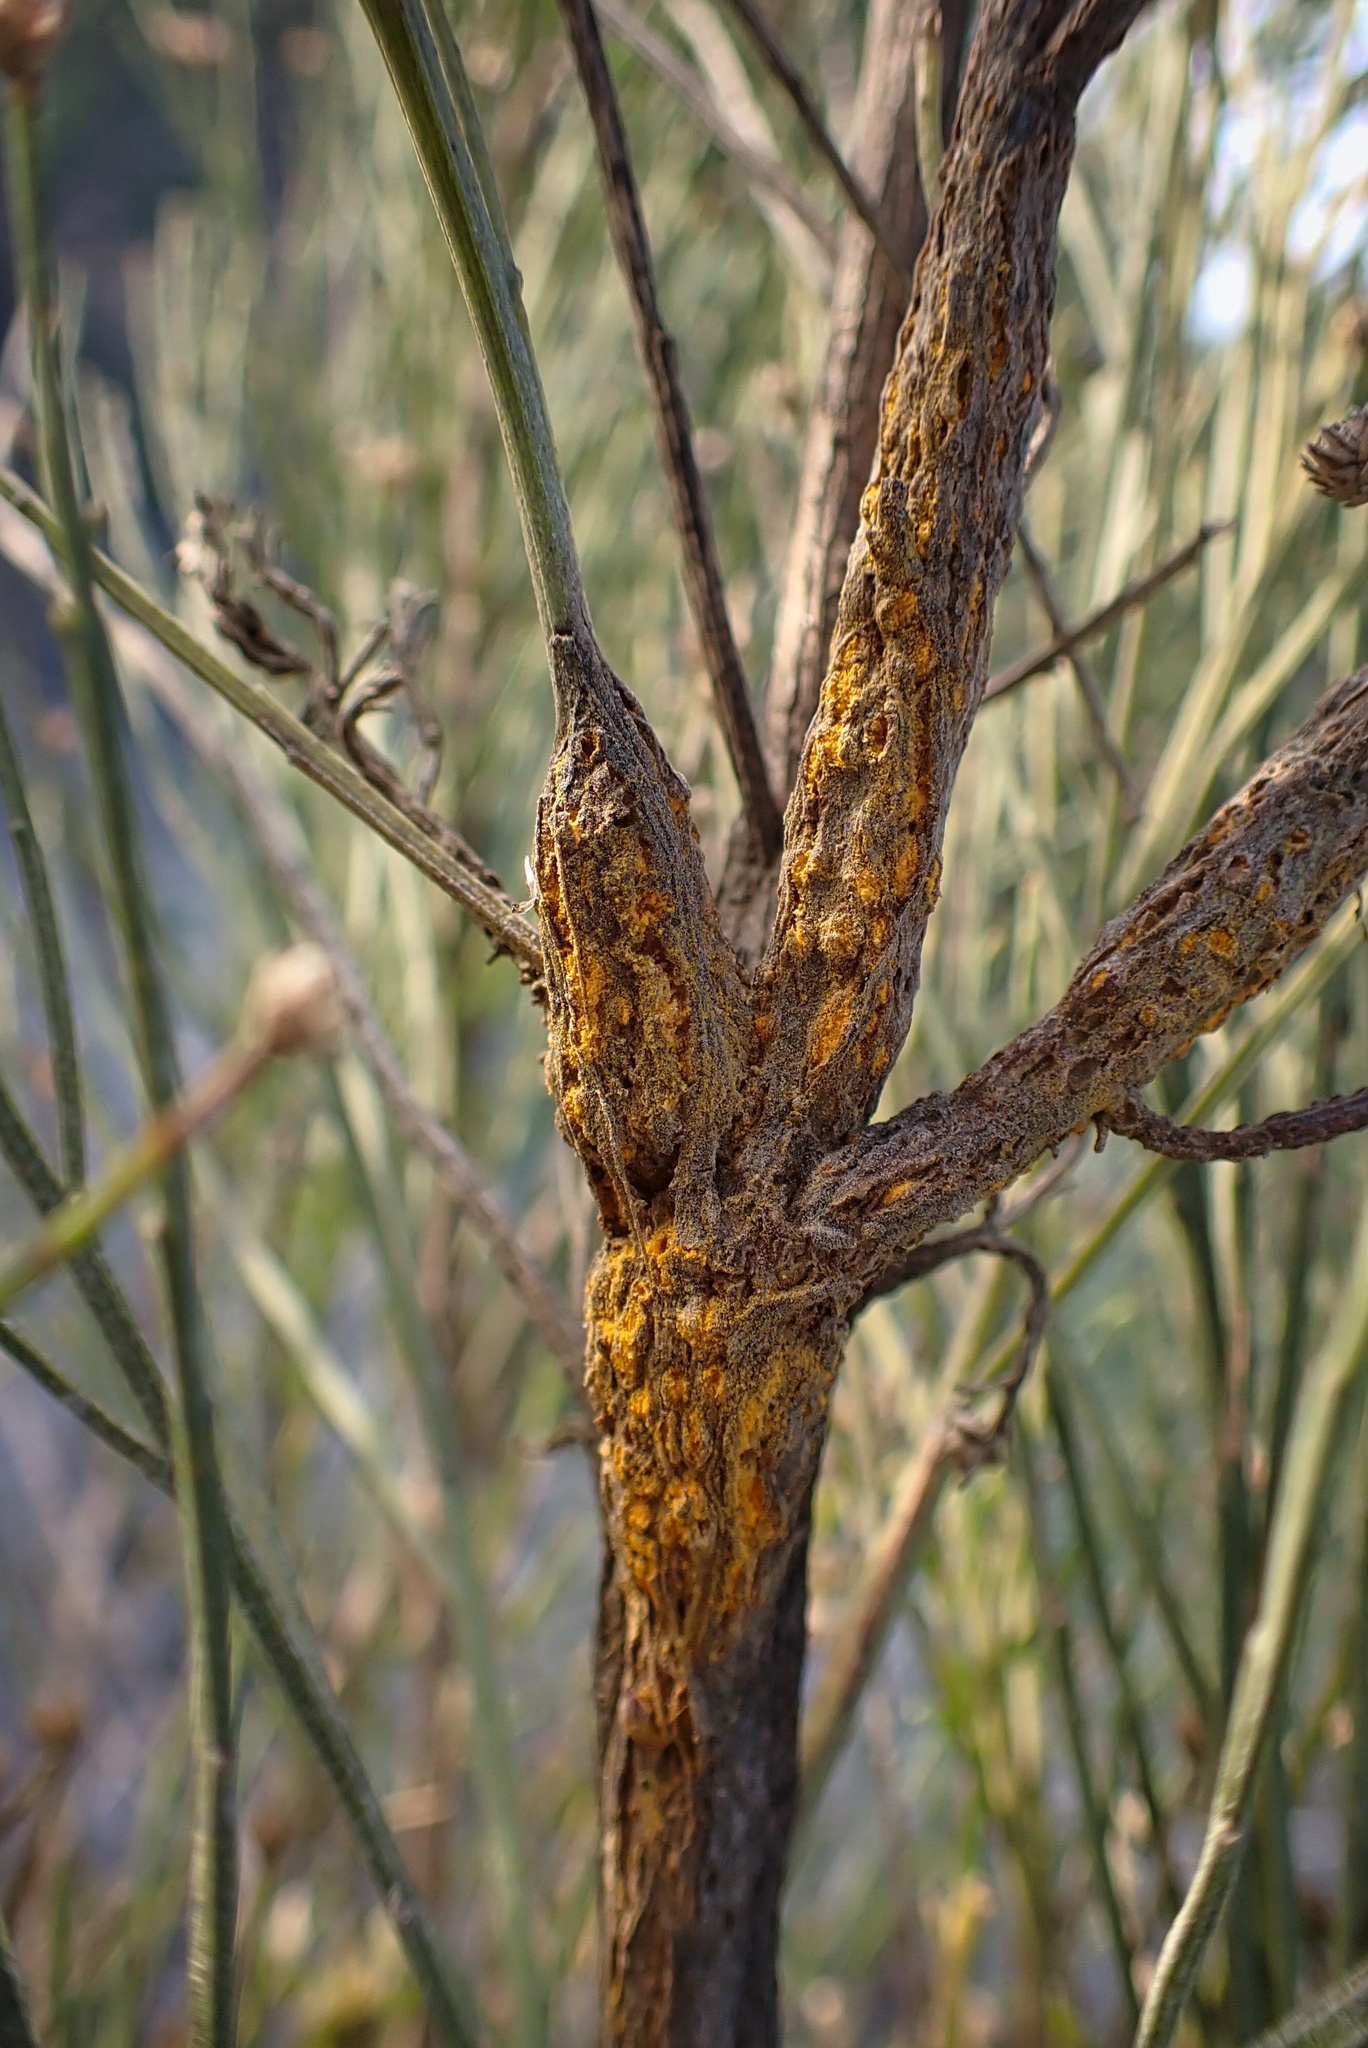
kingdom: Fungi
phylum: Basidiomycota
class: Pucciniomycetes
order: Pucciniales
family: Pucciniaceae
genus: Eriosporangium
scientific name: Eriosporangium evadens
